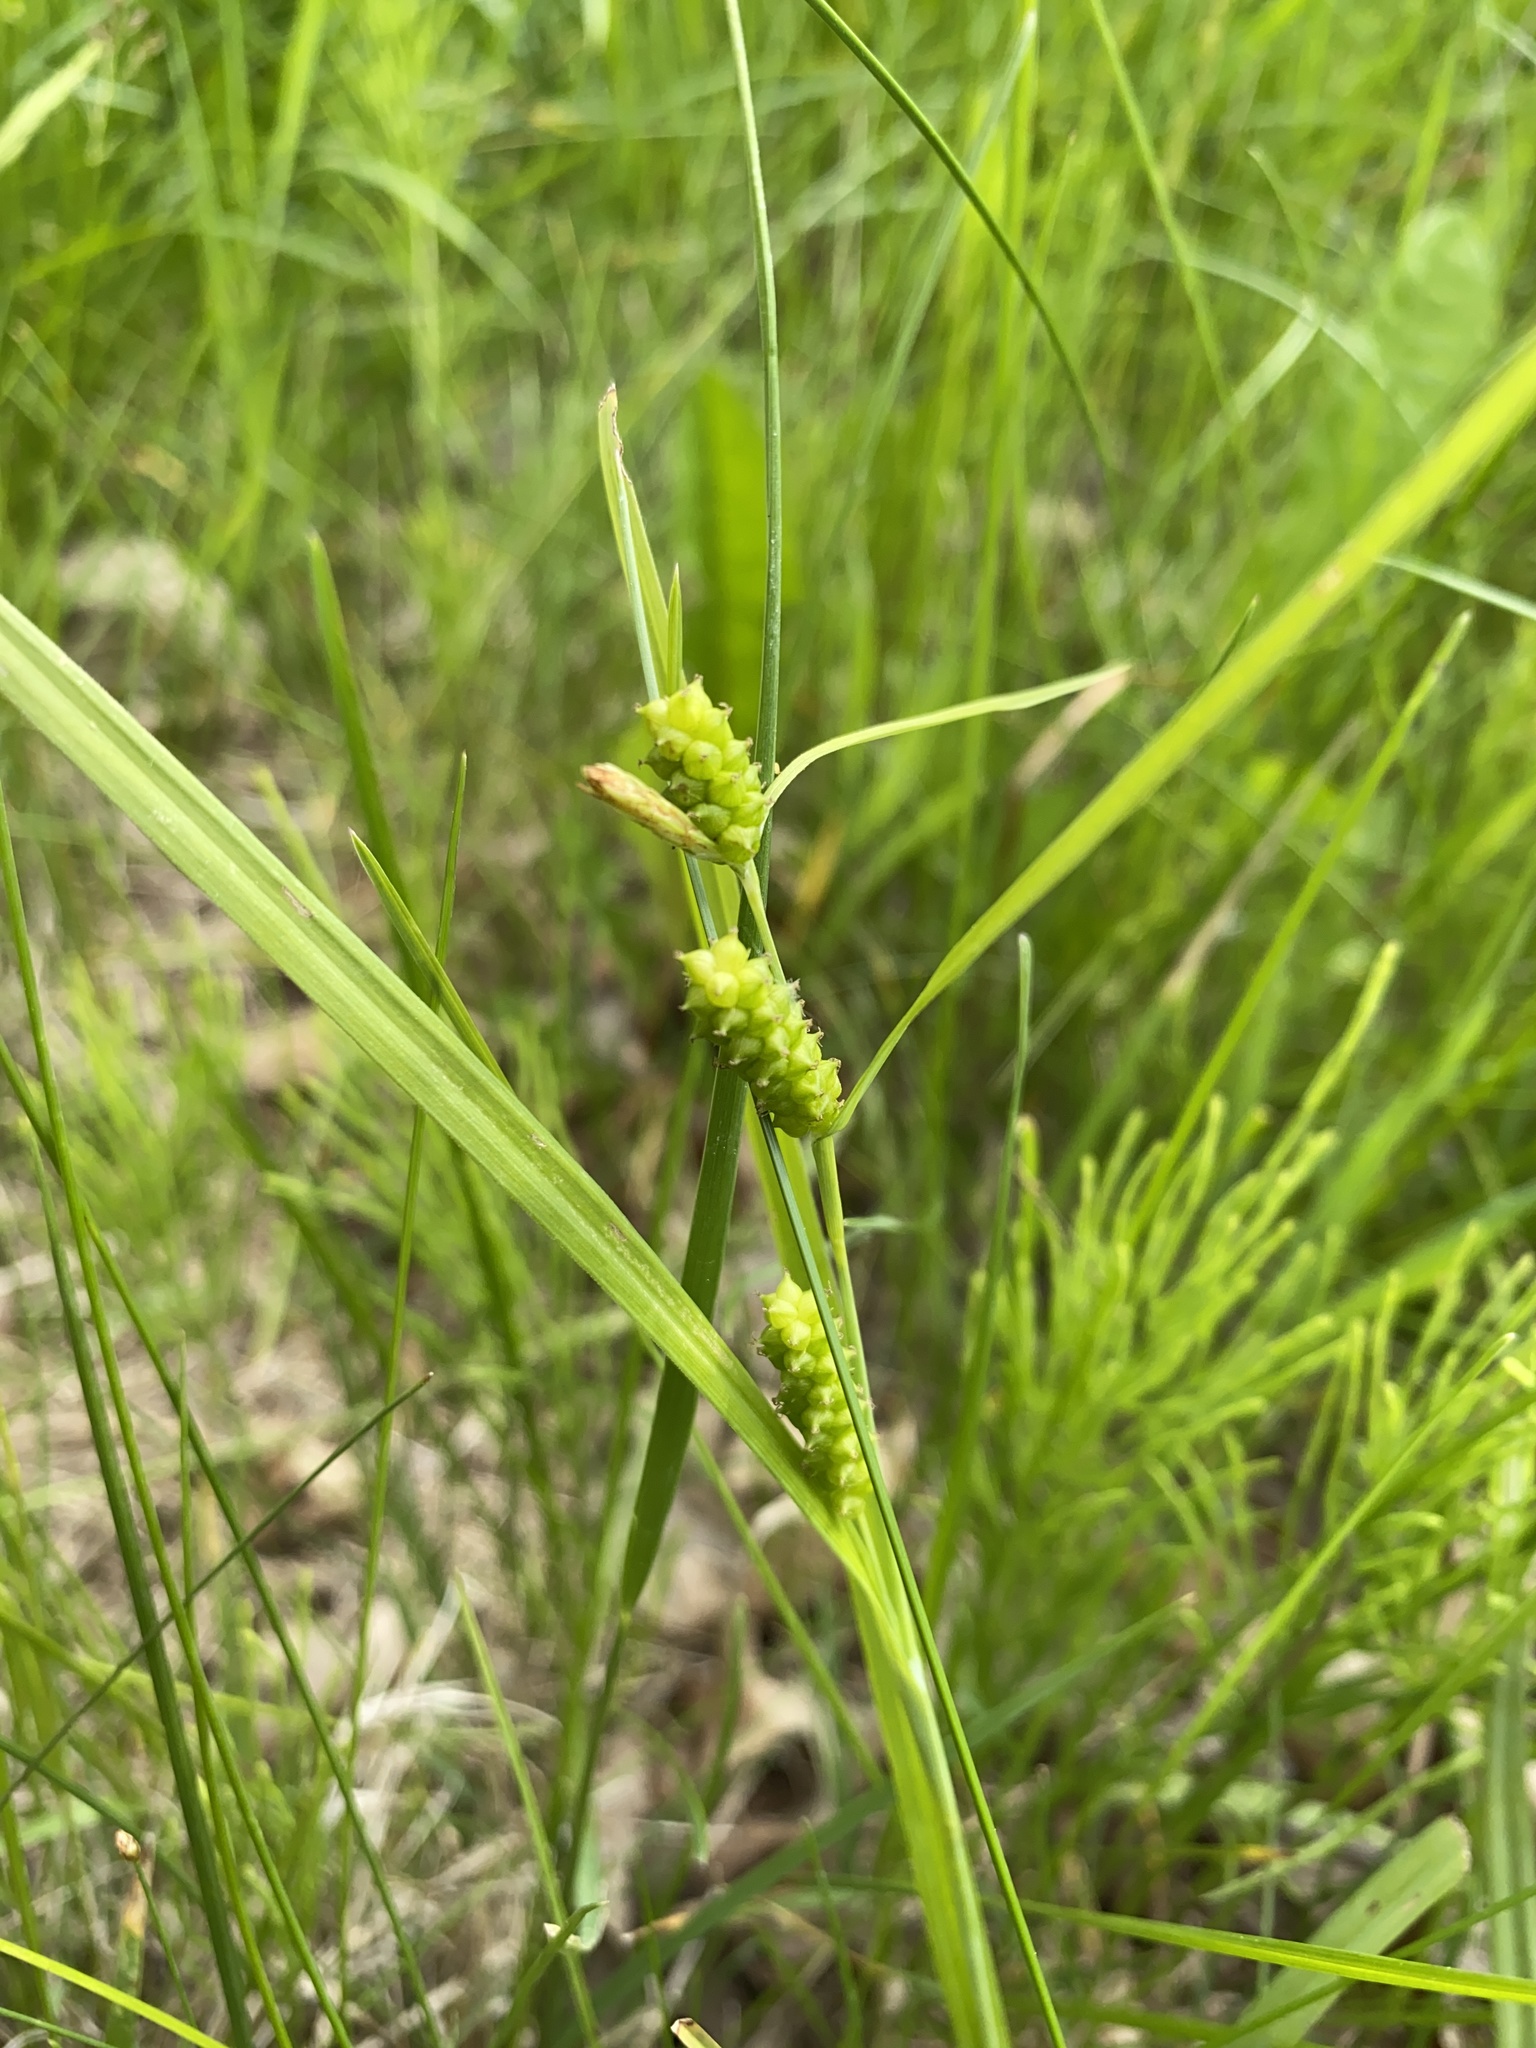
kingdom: Plantae
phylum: Tracheophyta
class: Liliopsida
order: Poales
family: Cyperaceae
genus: Carex
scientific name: Carex granularis
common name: Granular sedge
